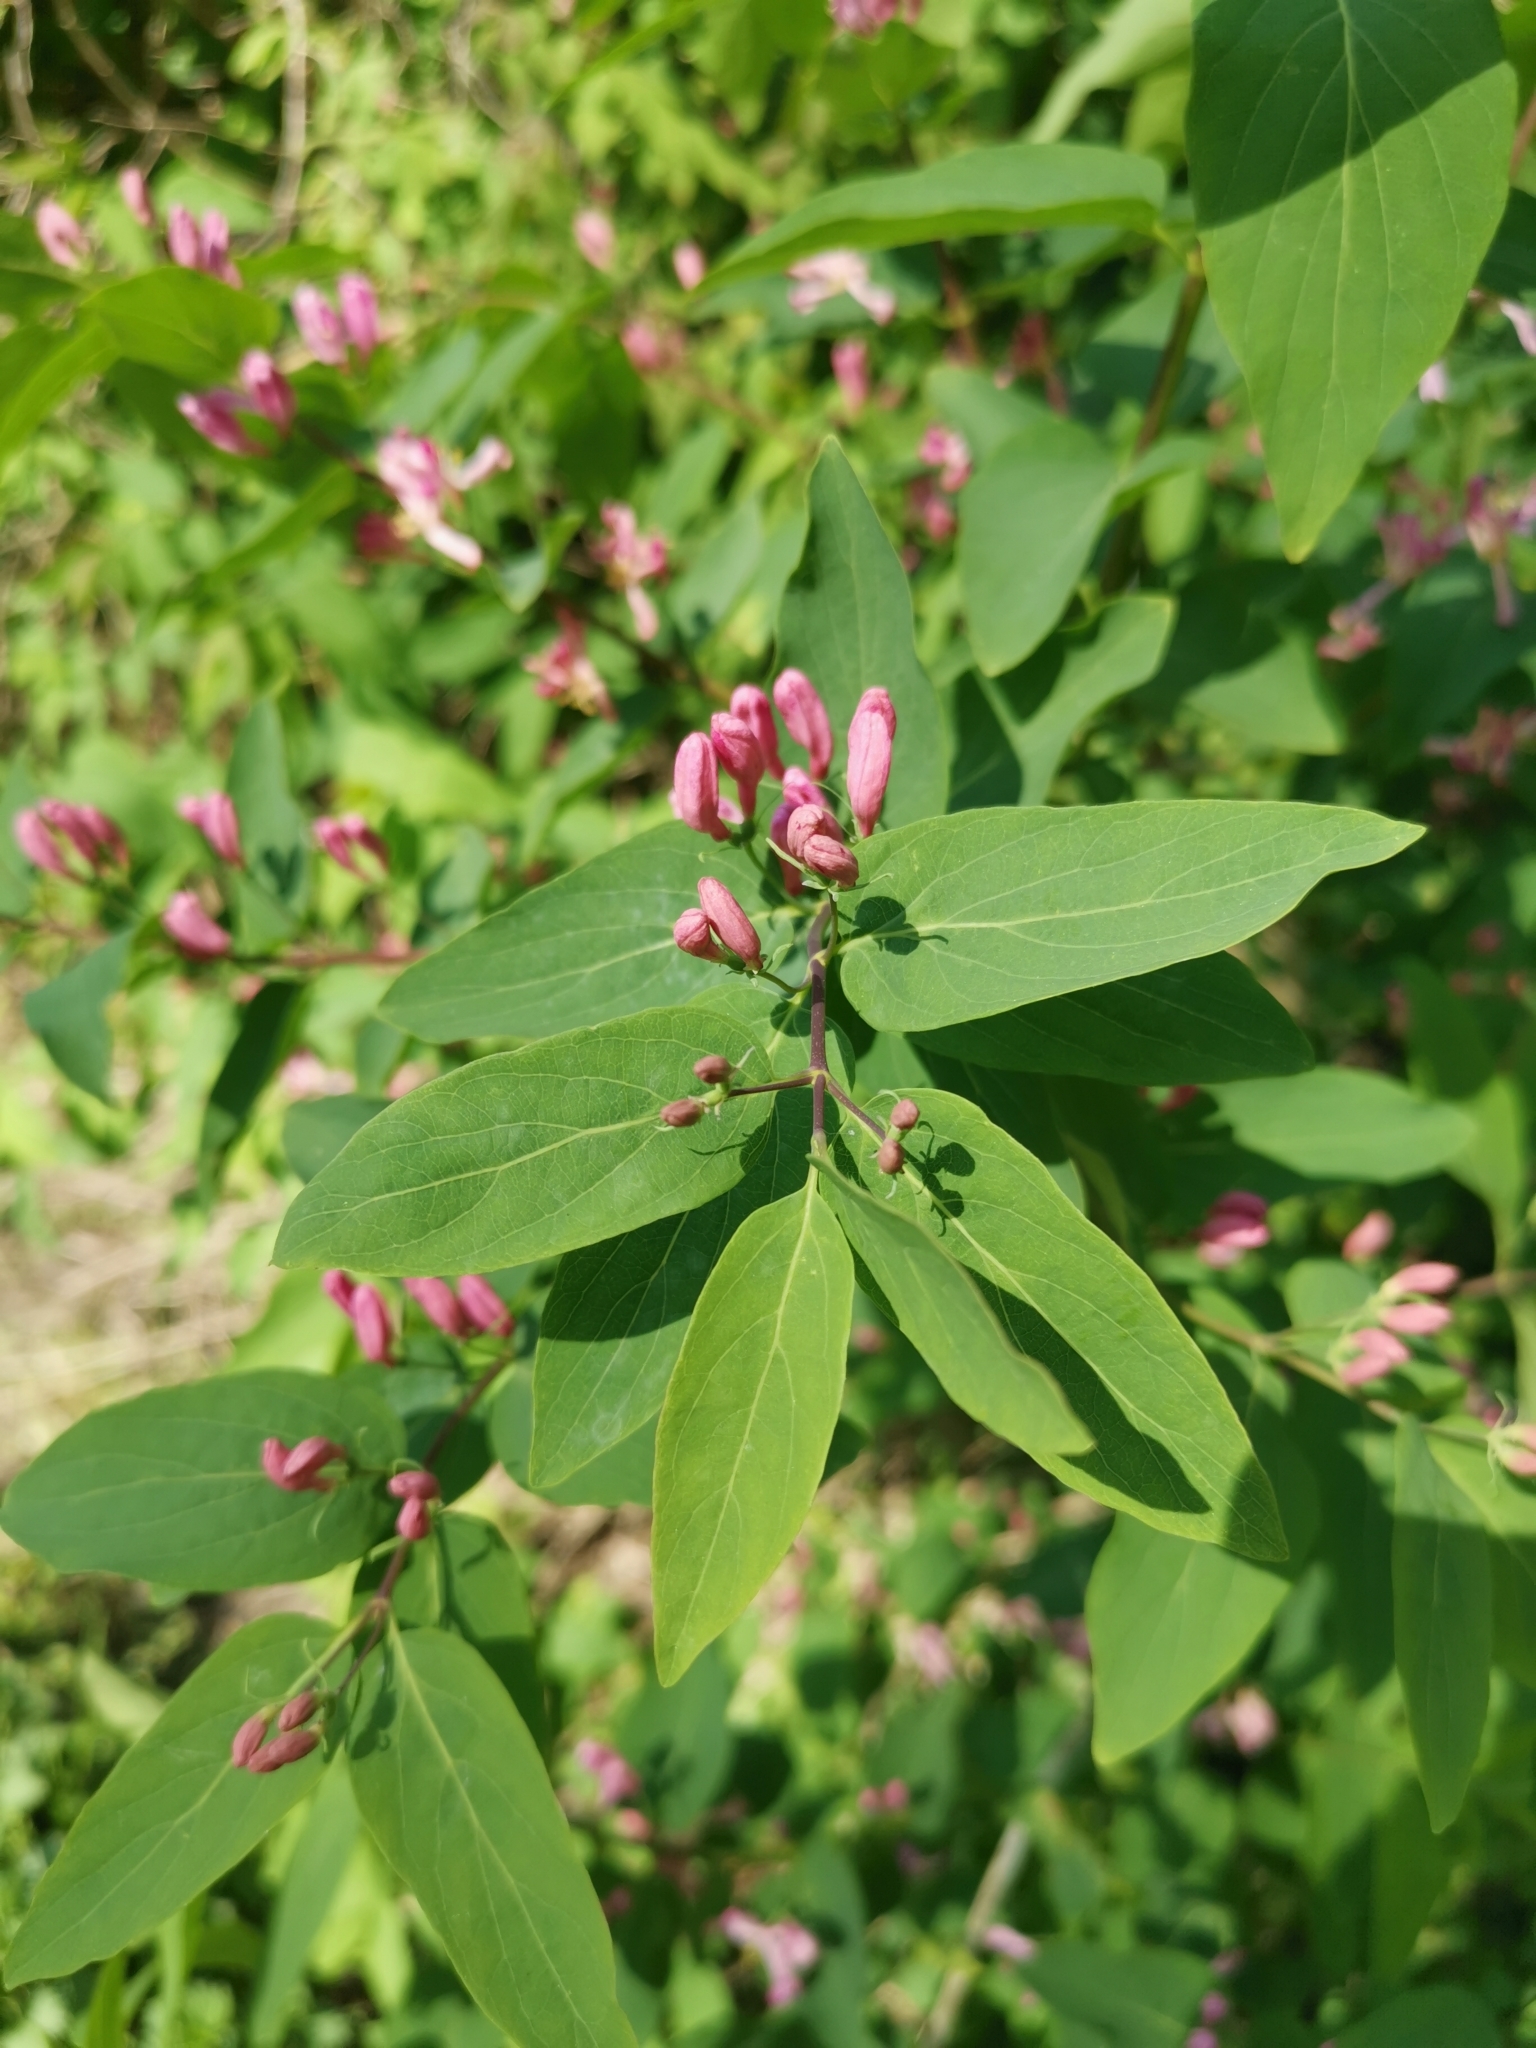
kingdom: Plantae
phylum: Tracheophyta
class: Magnoliopsida
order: Dipsacales
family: Caprifoliaceae
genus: Lonicera
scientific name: Lonicera tatarica
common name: Tatarian honeysuckle
